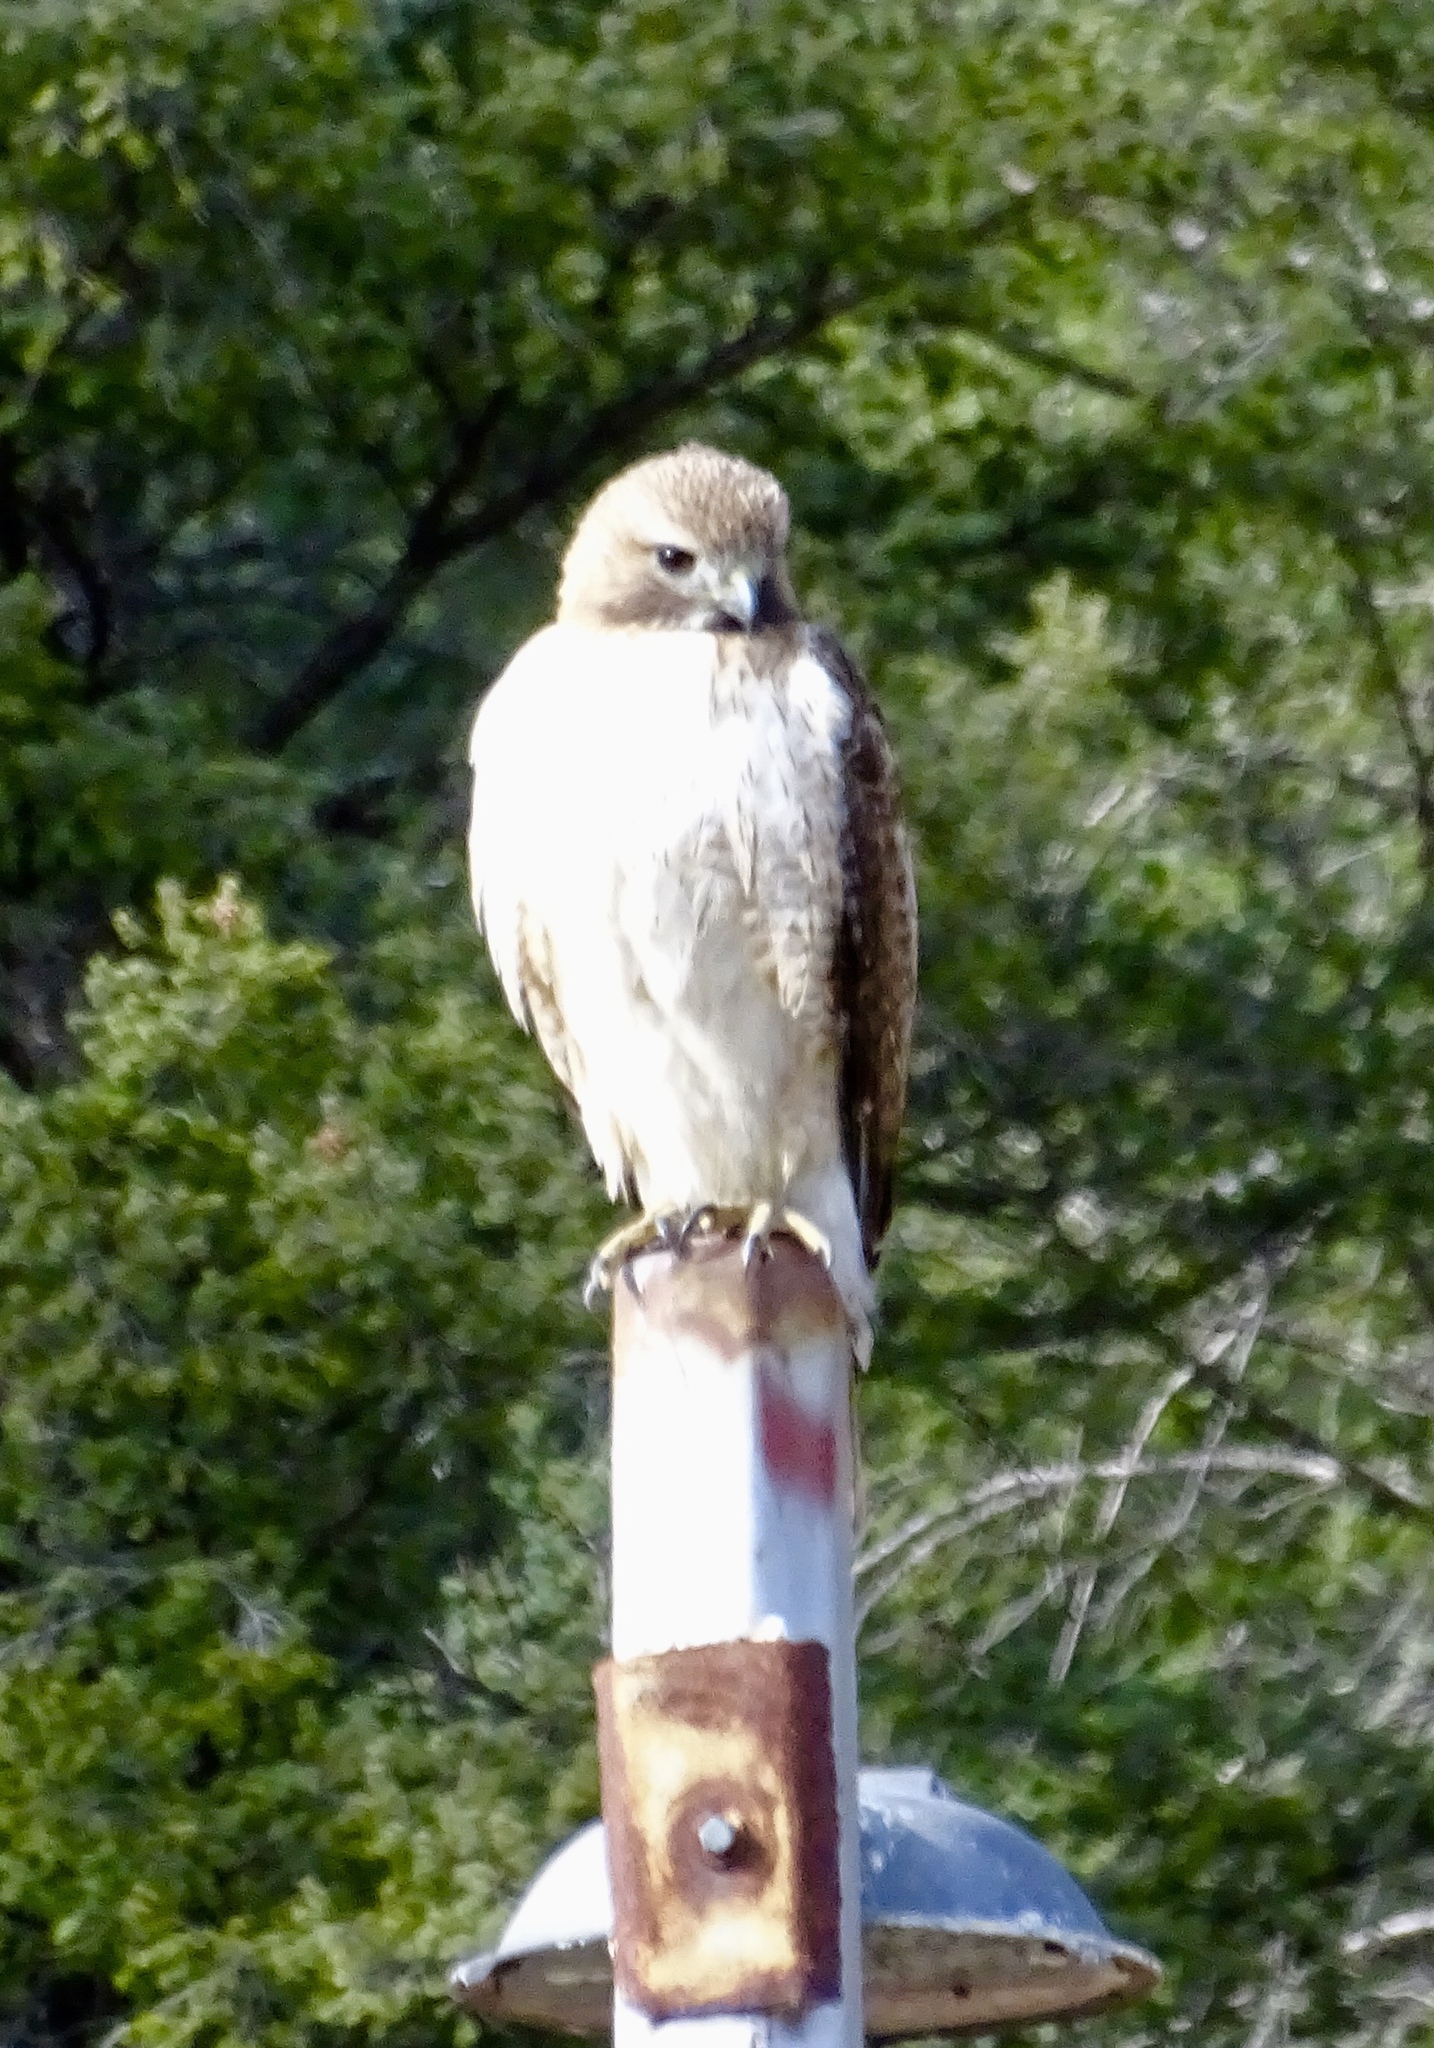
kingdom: Animalia
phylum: Chordata
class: Aves
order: Accipitriformes
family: Accipitridae
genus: Buteo
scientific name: Buteo jamaicensis
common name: Red-tailed hawk
